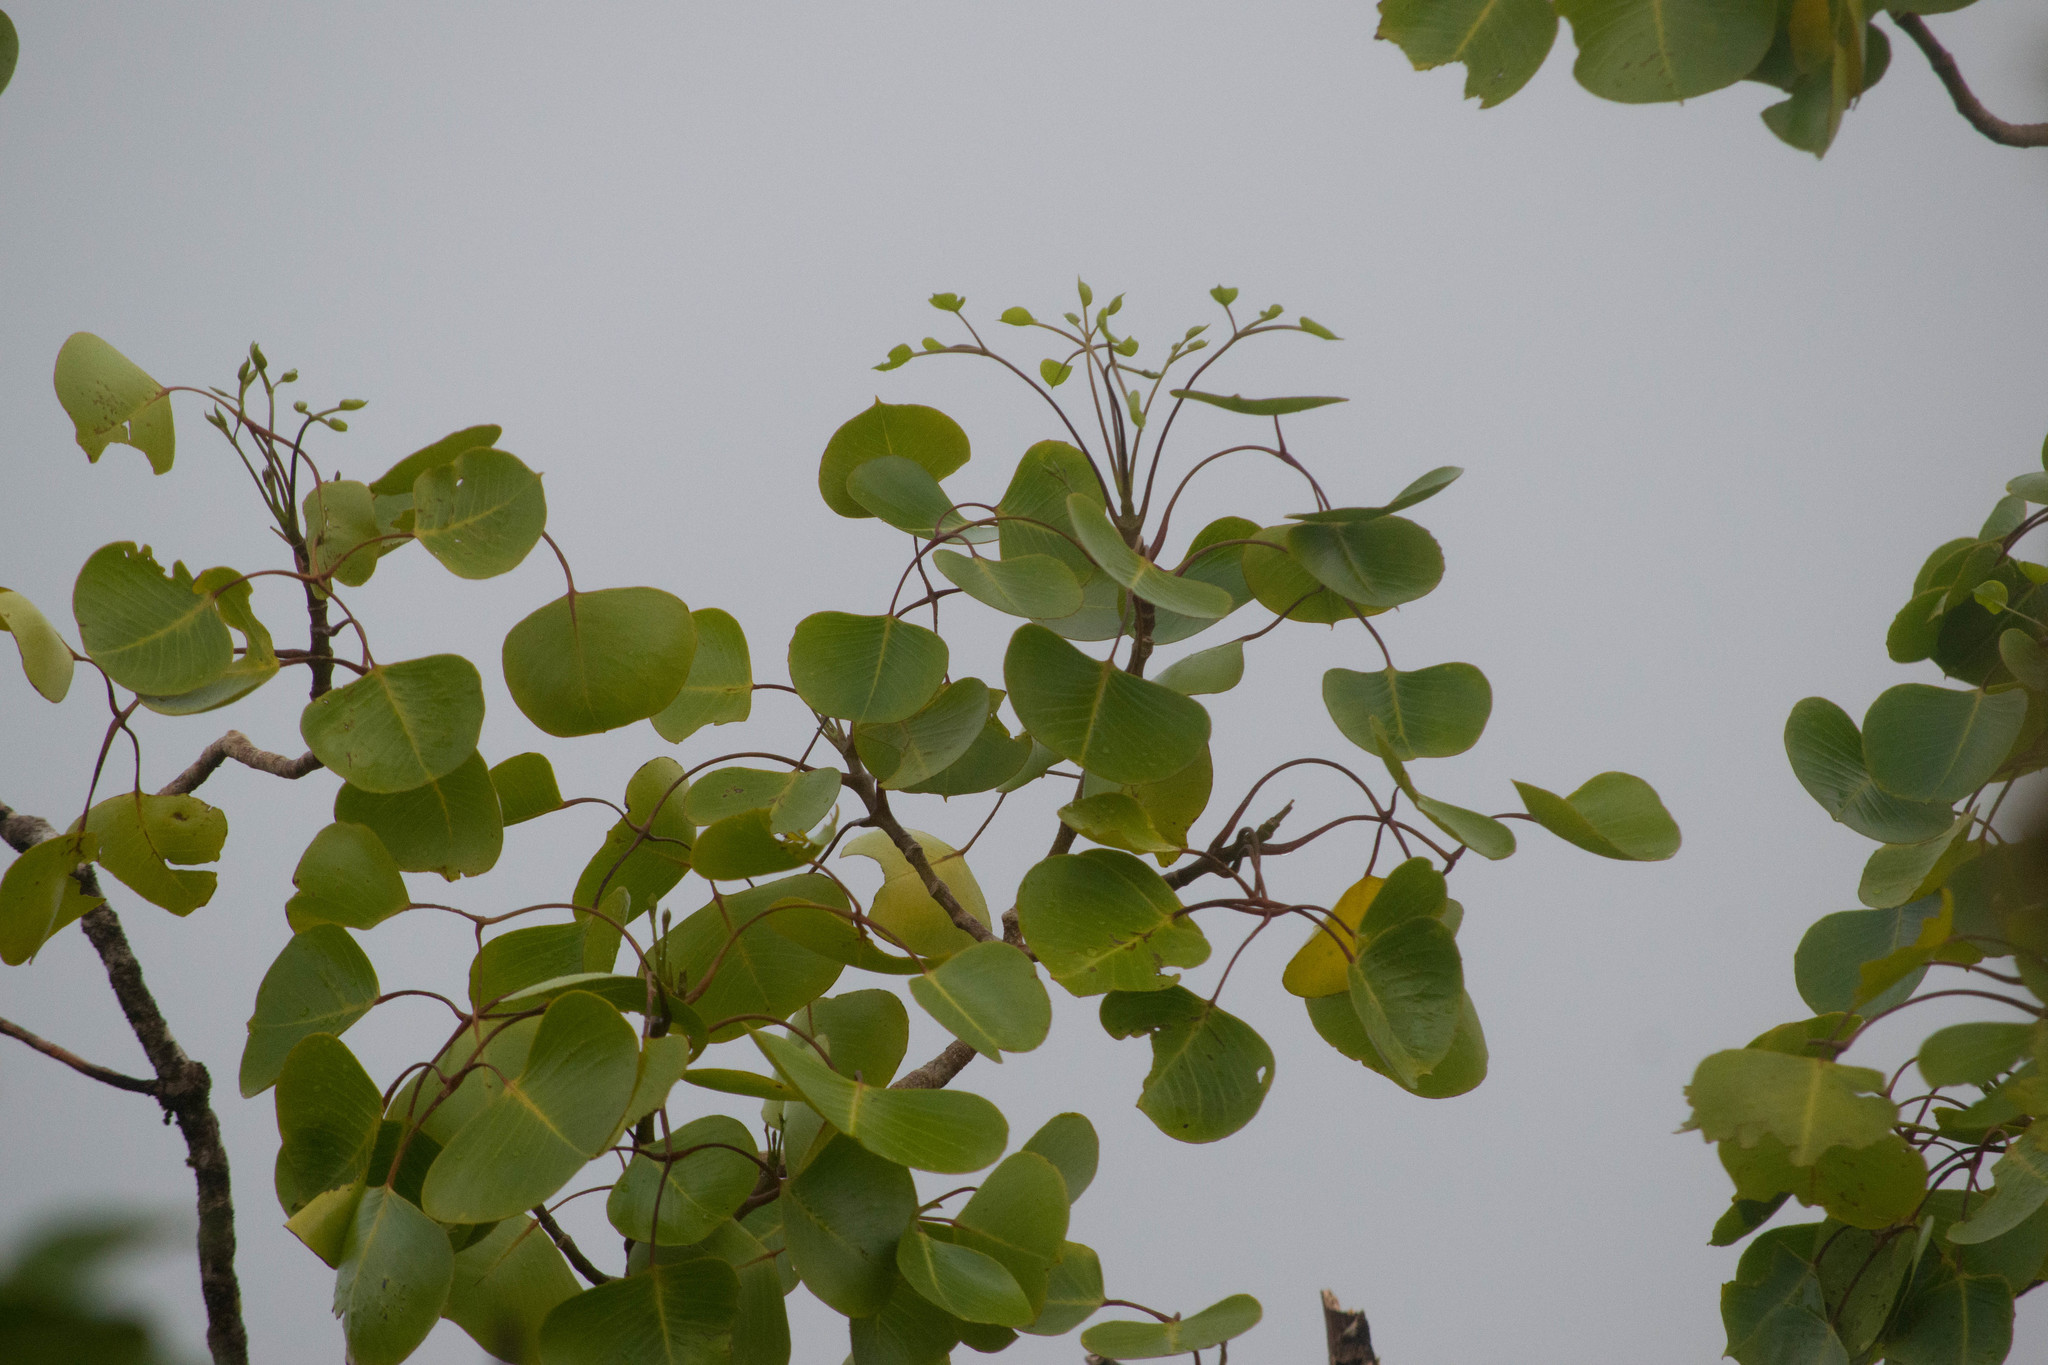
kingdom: Plantae
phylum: Tracheophyta
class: Magnoliopsida
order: Apiales
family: Araliaceae
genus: Cheirodendron
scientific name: Cheirodendron platyphyllum
